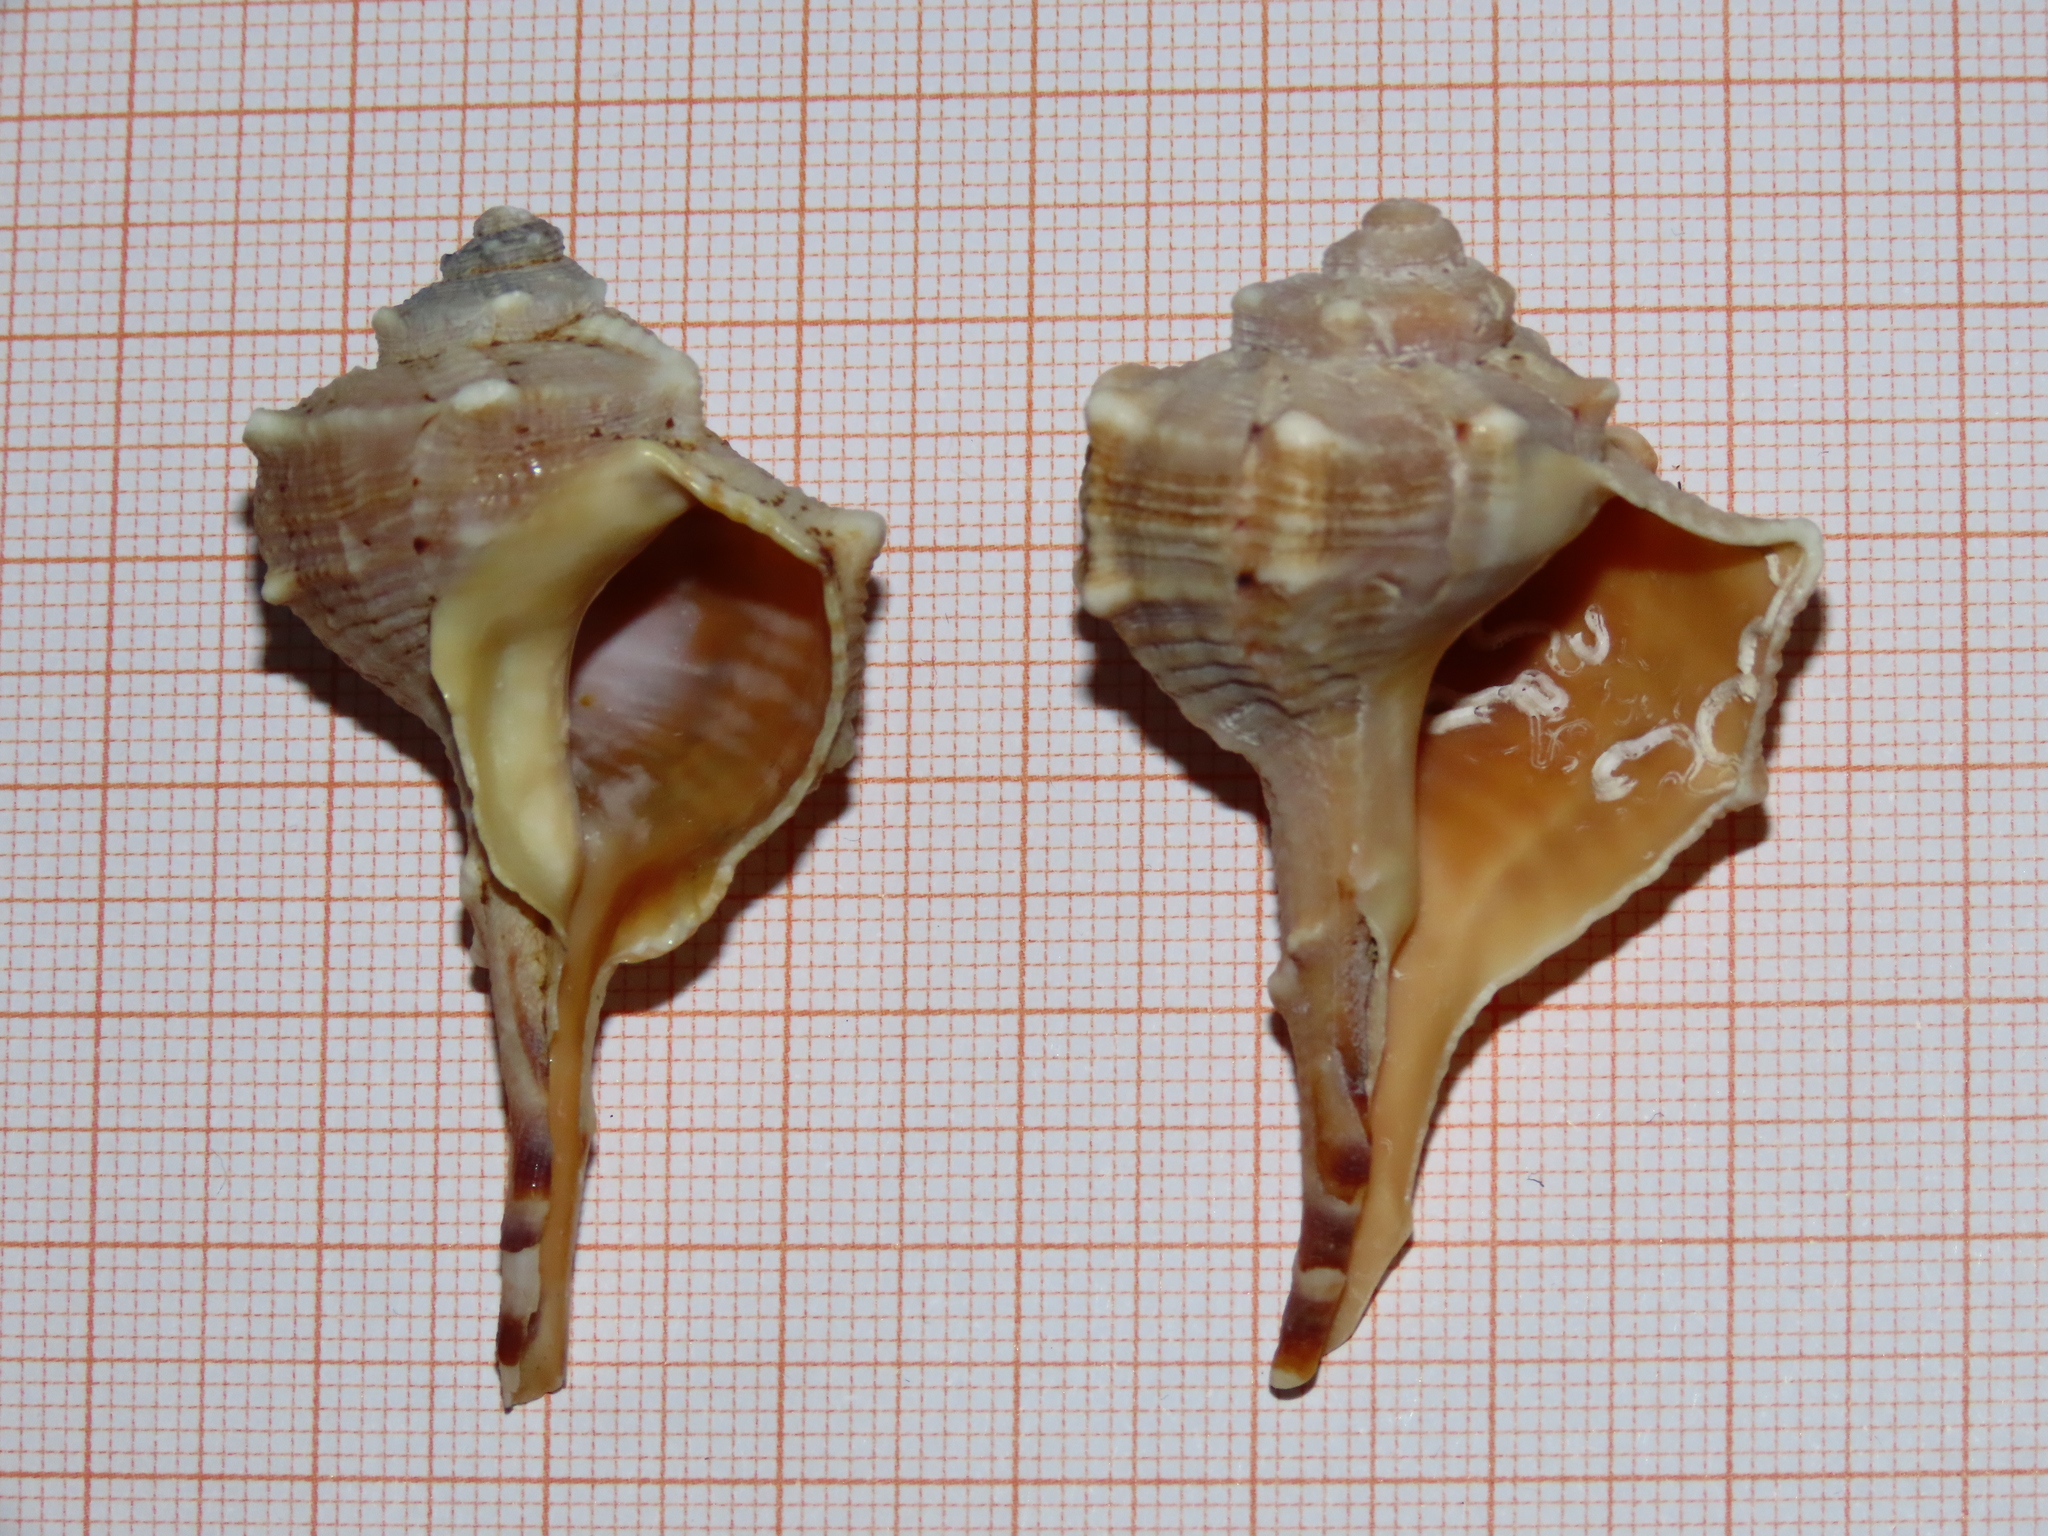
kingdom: Animalia
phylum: Mollusca
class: Gastropoda
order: Neogastropoda
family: Muricidae
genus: Bolinus
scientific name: Bolinus brandaris
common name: Dye murex
